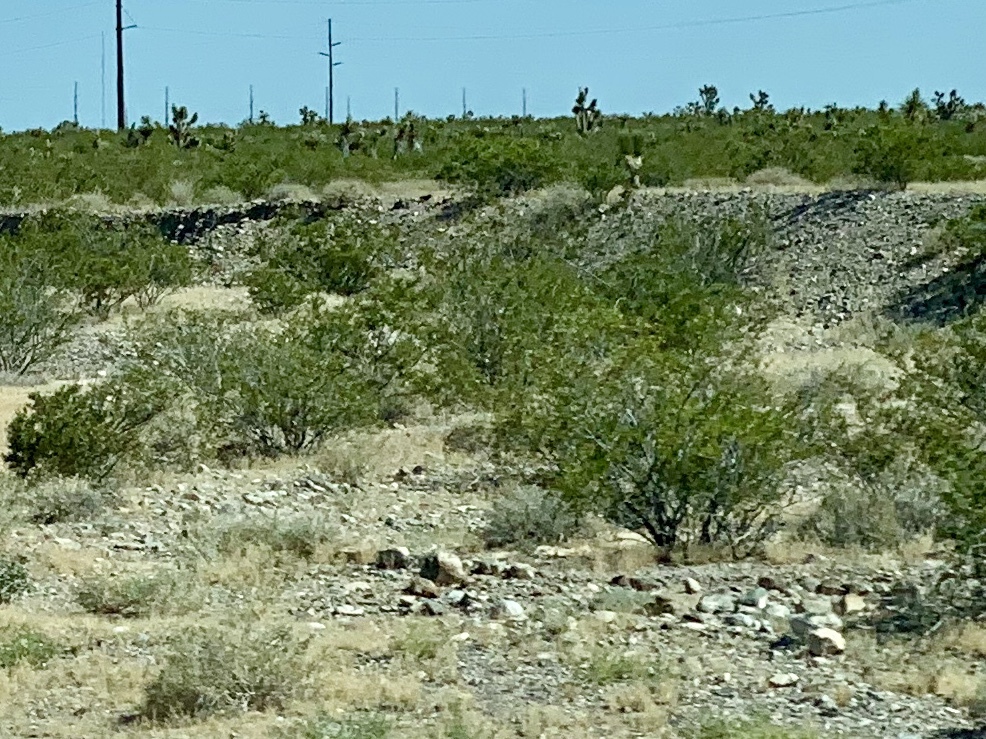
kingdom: Plantae
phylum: Tracheophyta
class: Magnoliopsida
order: Zygophyllales
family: Zygophyllaceae
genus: Larrea
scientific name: Larrea tridentata
